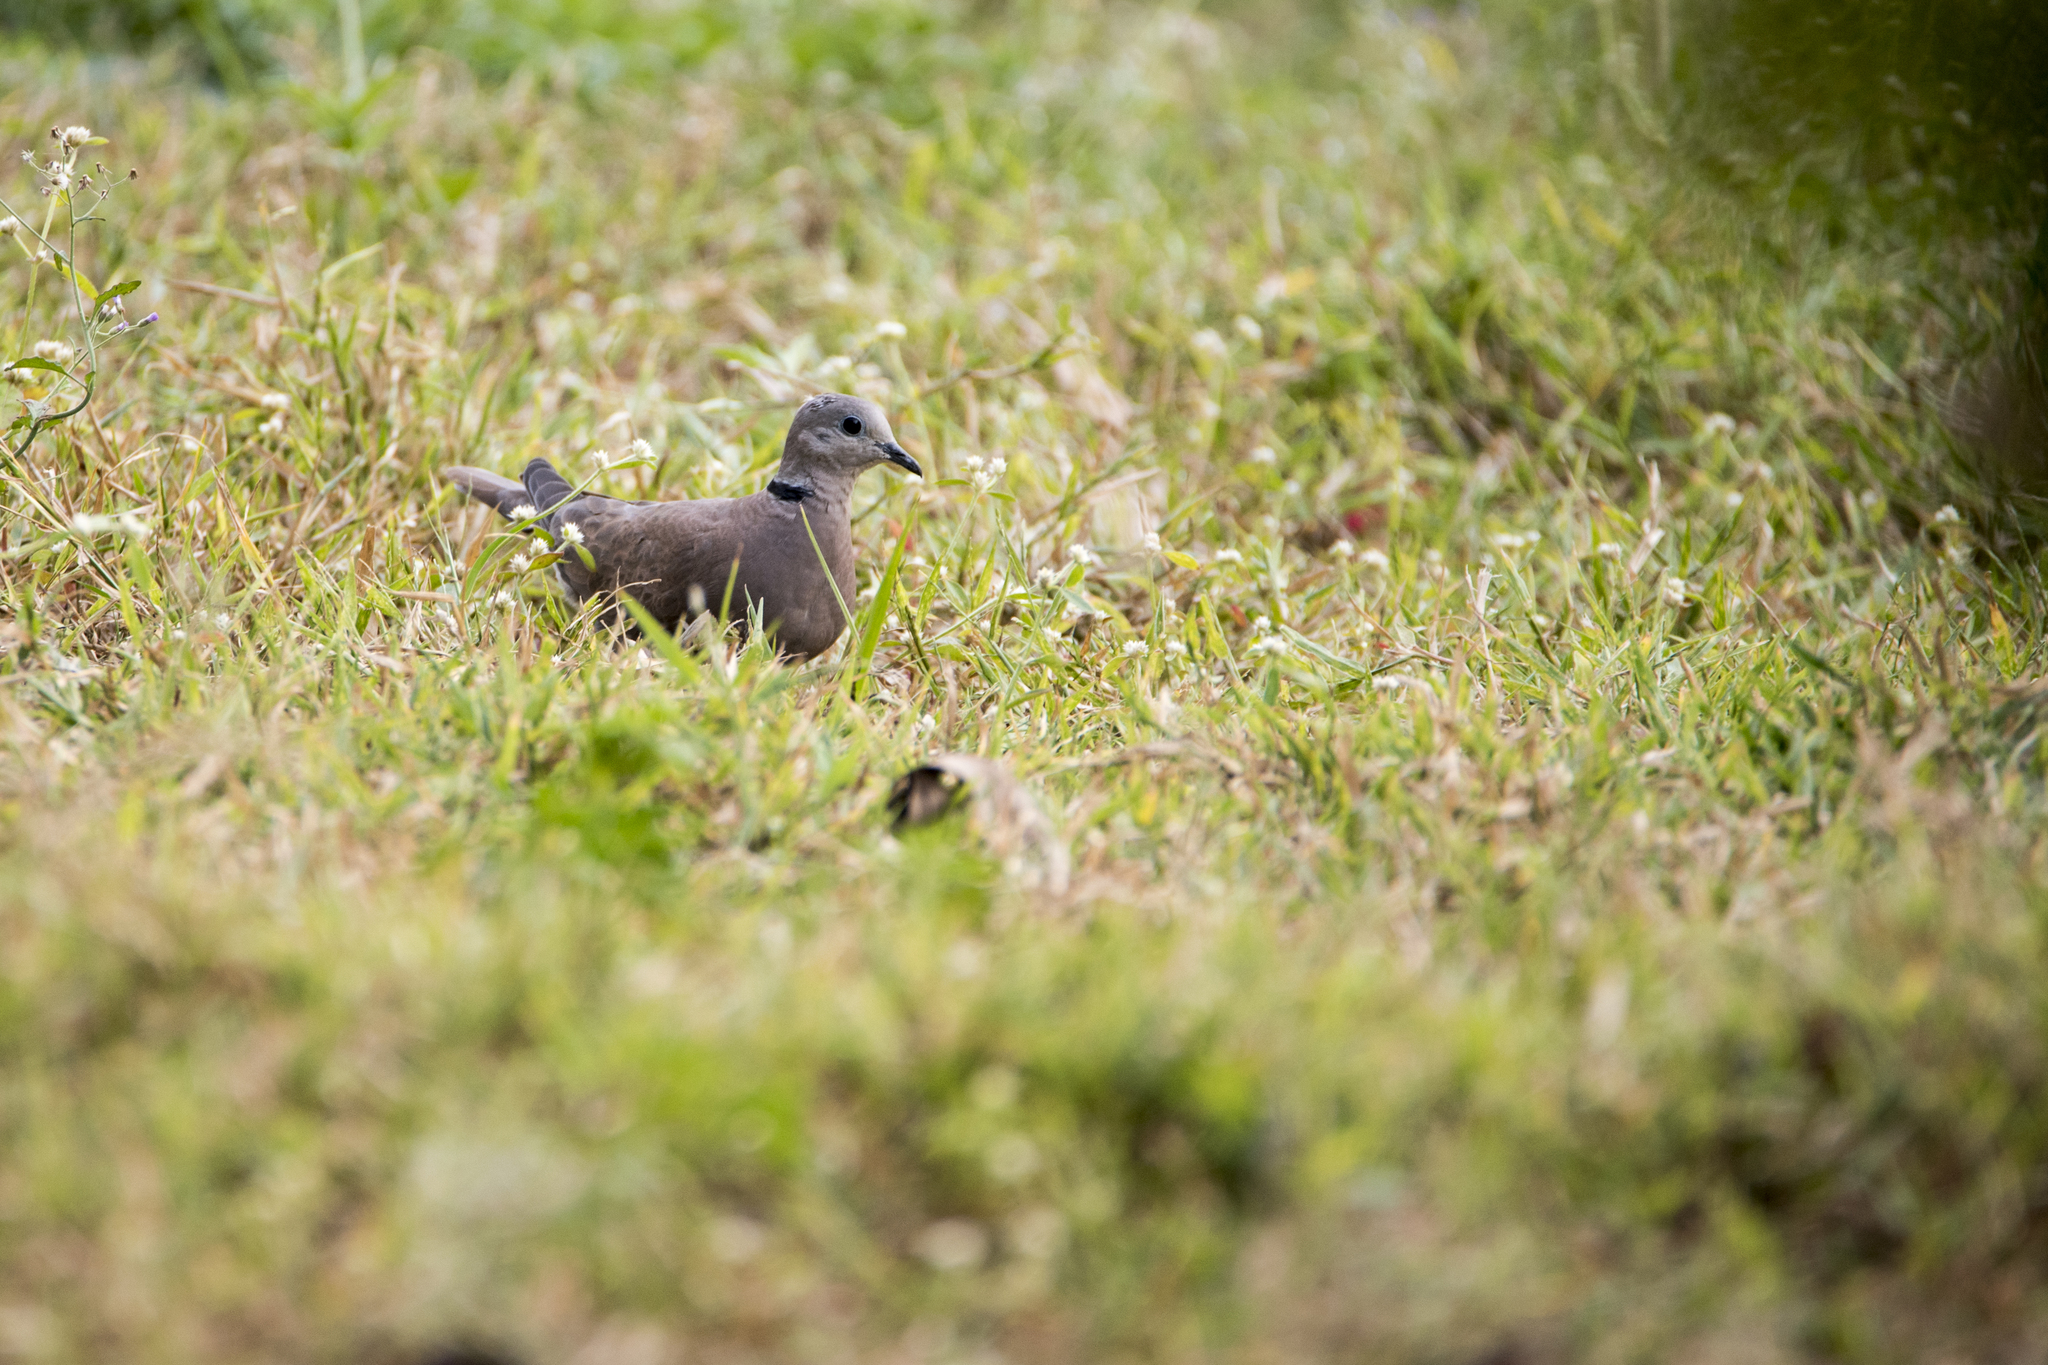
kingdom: Animalia
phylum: Chordata
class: Aves
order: Columbiformes
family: Columbidae
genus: Streptopelia
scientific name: Streptopelia tranquebarica
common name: Red turtle dove
